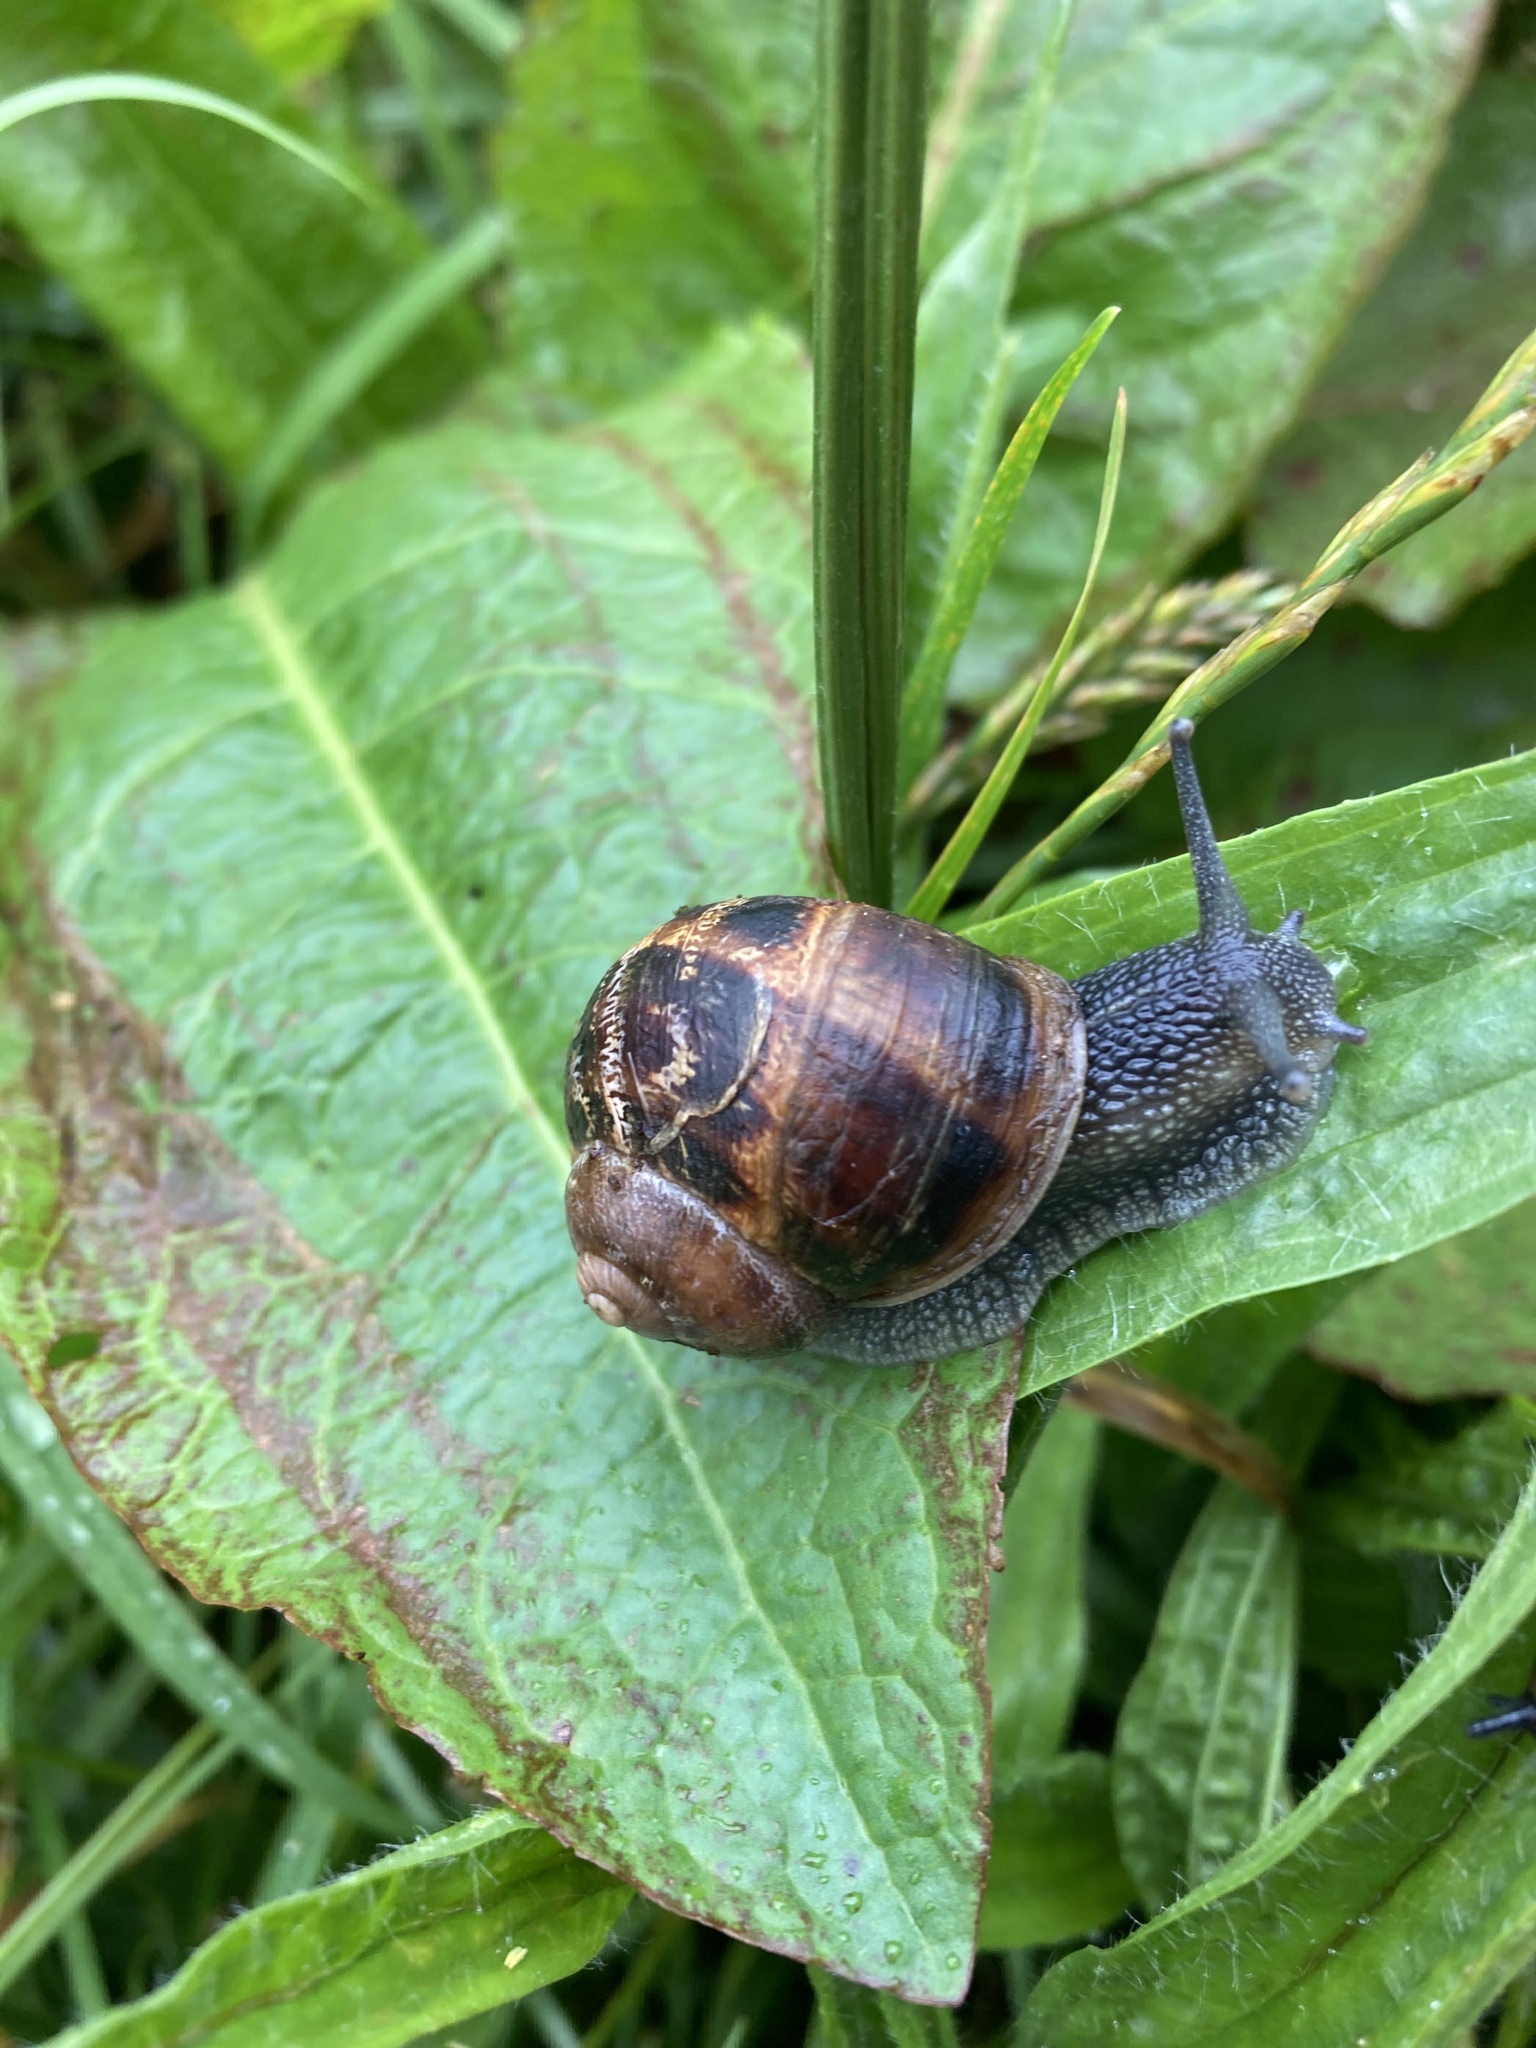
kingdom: Animalia
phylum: Mollusca
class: Gastropoda
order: Stylommatophora
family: Helicidae
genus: Cornu
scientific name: Cornu aspersum
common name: Brown garden snail
